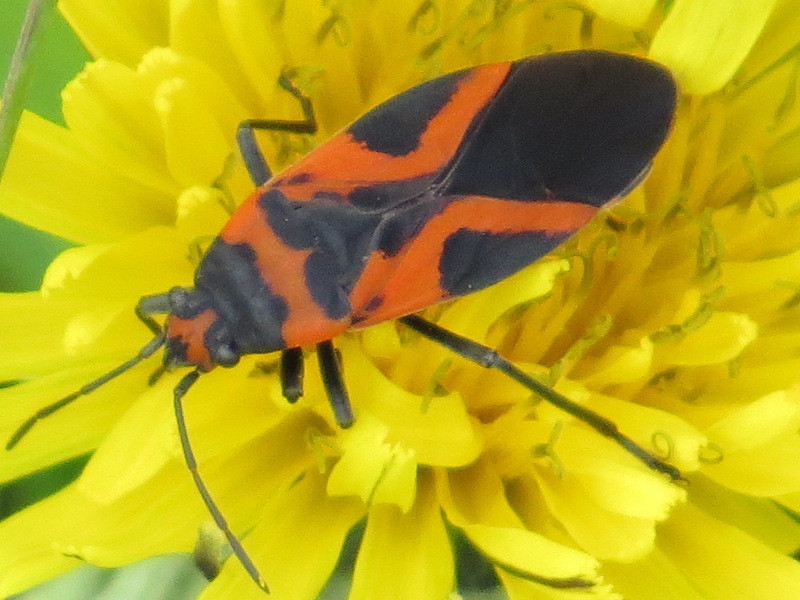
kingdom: Animalia
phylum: Arthropoda
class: Insecta
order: Hemiptera
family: Lygaeidae
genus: Lygaeus
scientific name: Lygaeus turcicus
